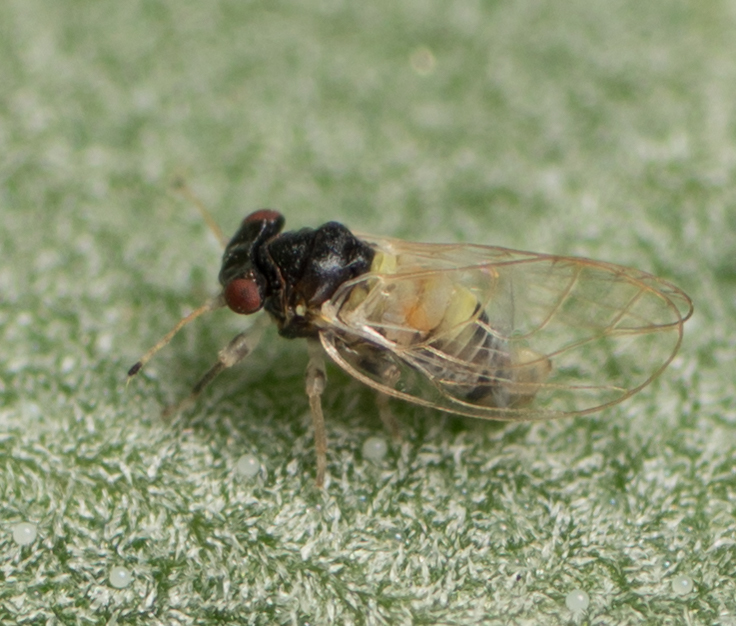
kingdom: Animalia
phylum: Arthropoda
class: Insecta
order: Hemiptera
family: Calophyidae
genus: Calophya
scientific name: Calophya californica
